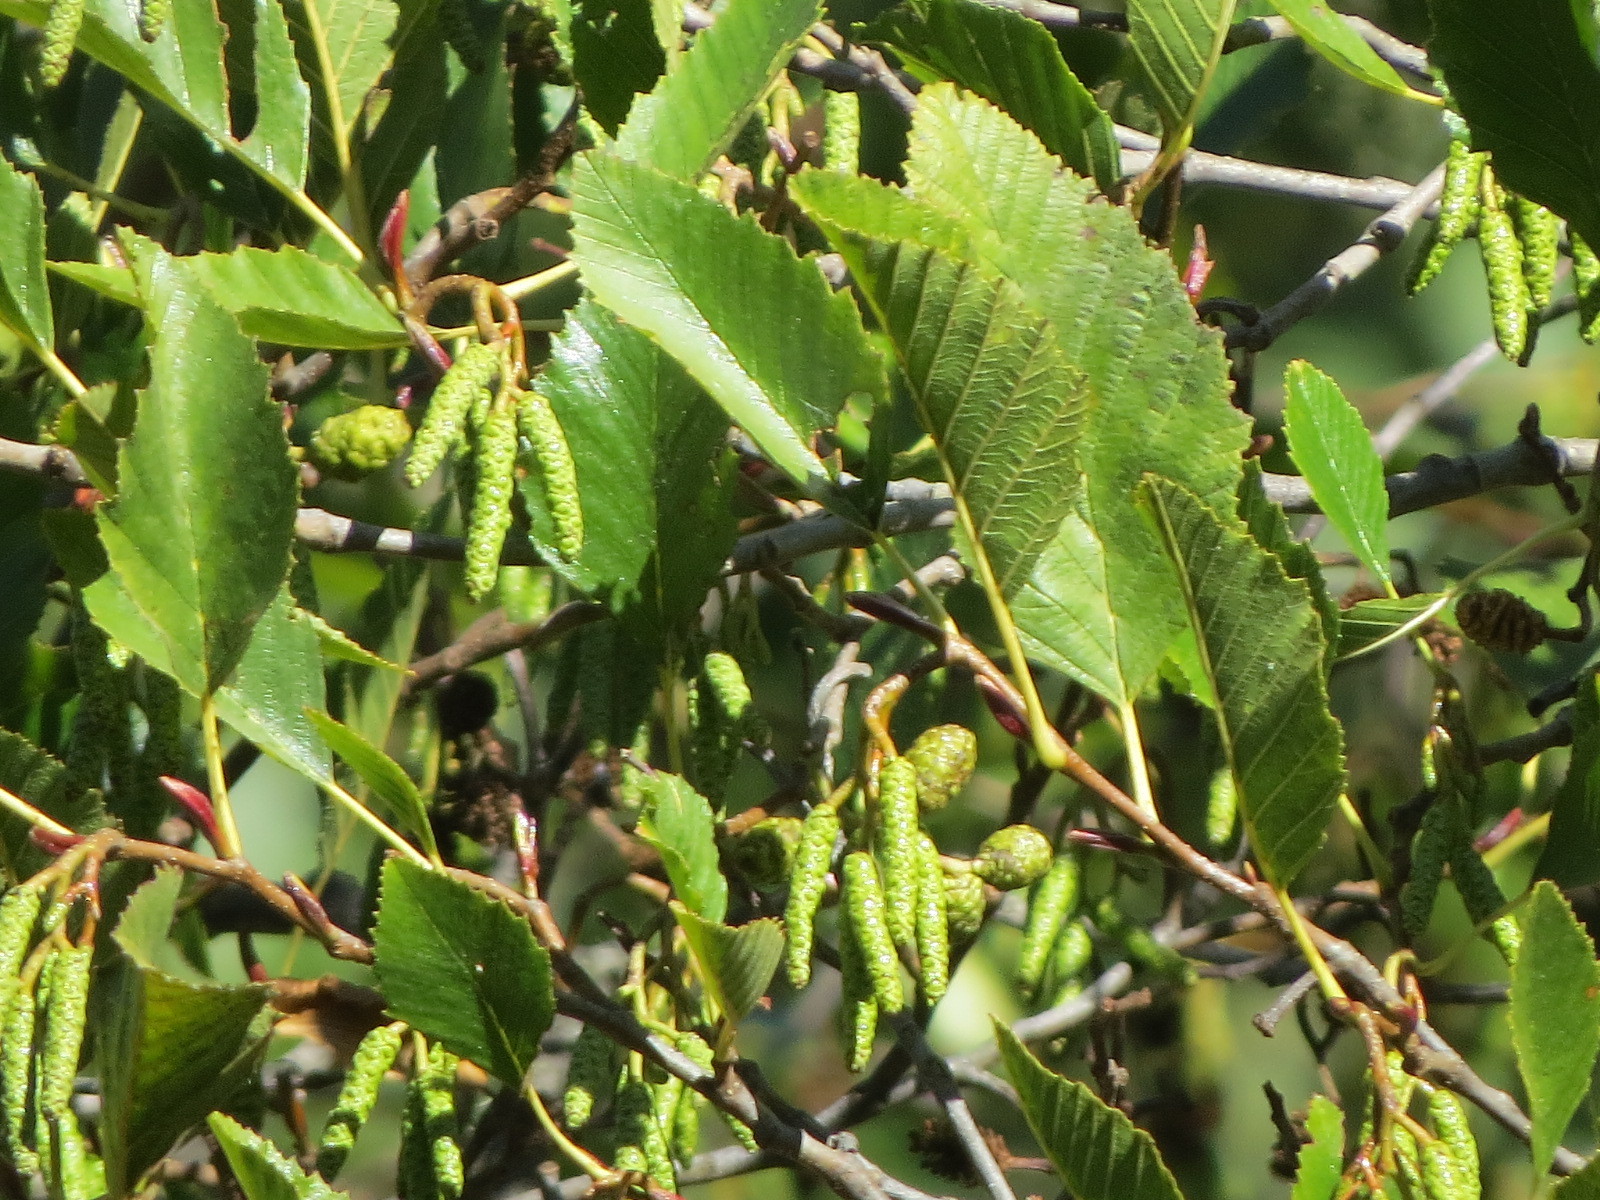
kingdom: Plantae
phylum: Tracheophyta
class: Magnoliopsida
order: Fagales
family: Betulaceae
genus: Alnus
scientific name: Alnus rhombifolia
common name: California alder
